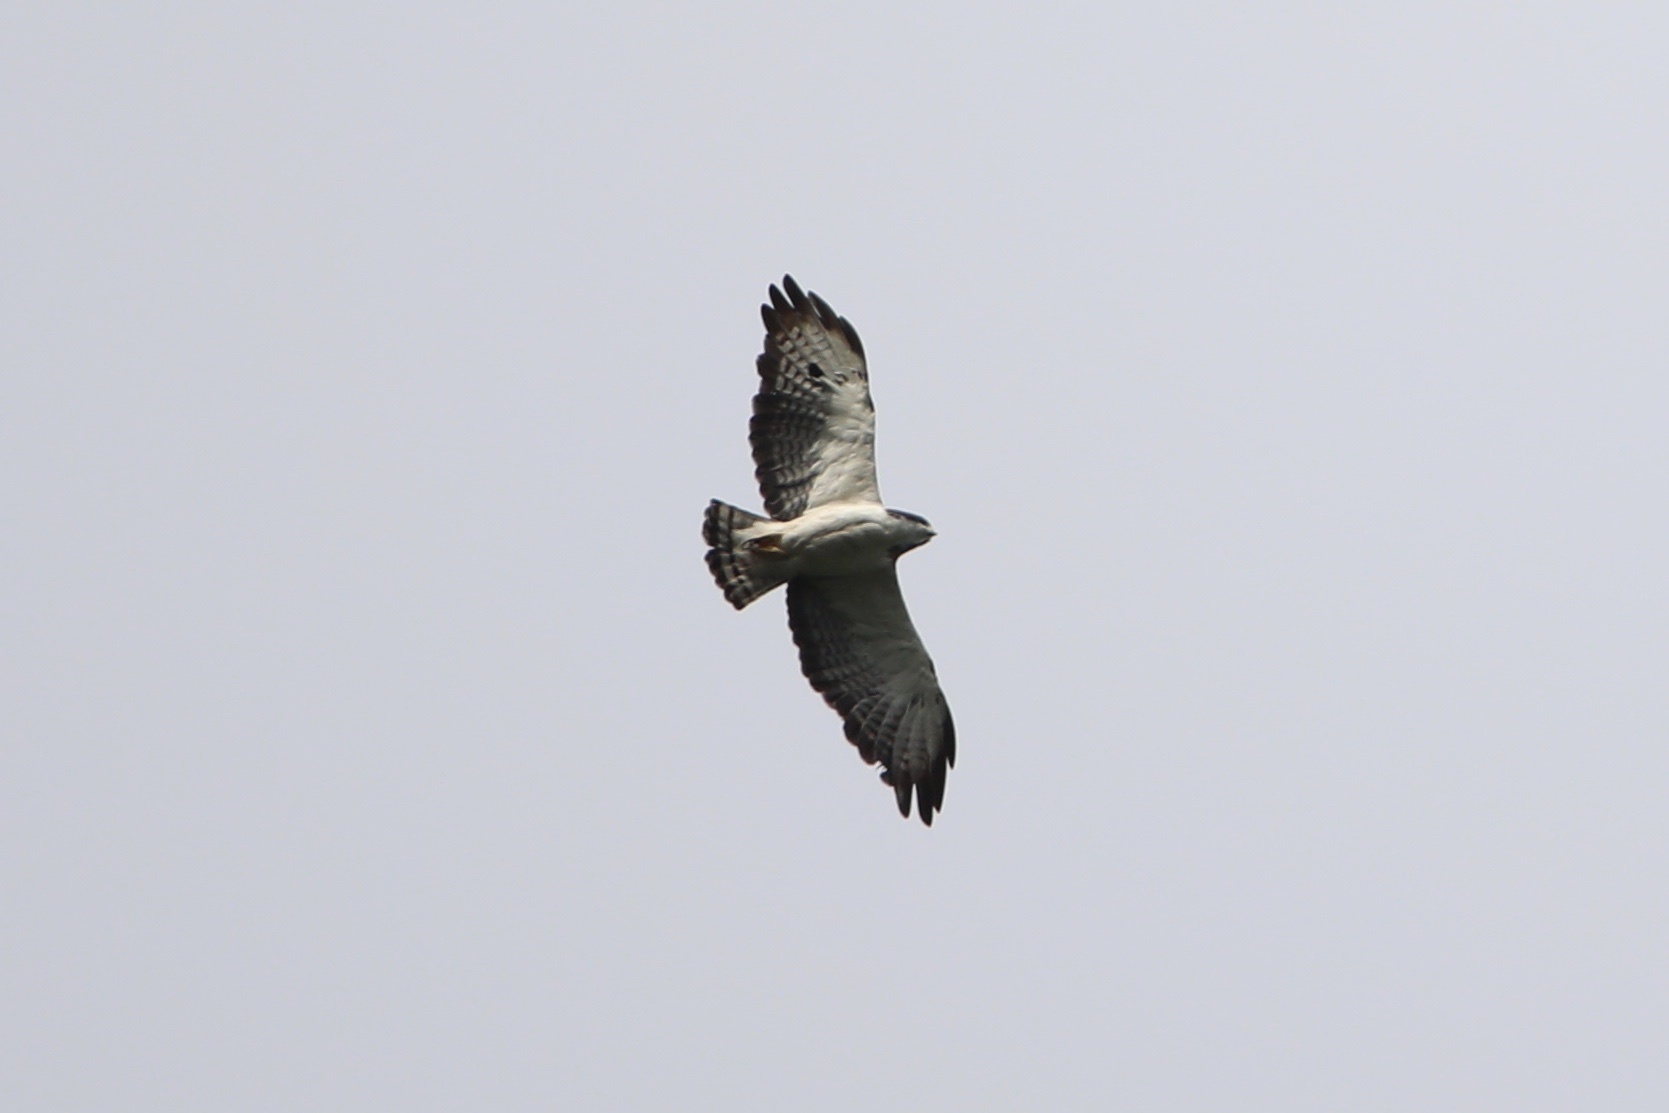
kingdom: Animalia
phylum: Chordata
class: Aves
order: Accipitriformes
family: Accipitridae
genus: Buteo
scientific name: Buteo brachyurus
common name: Short-tailed hawk
